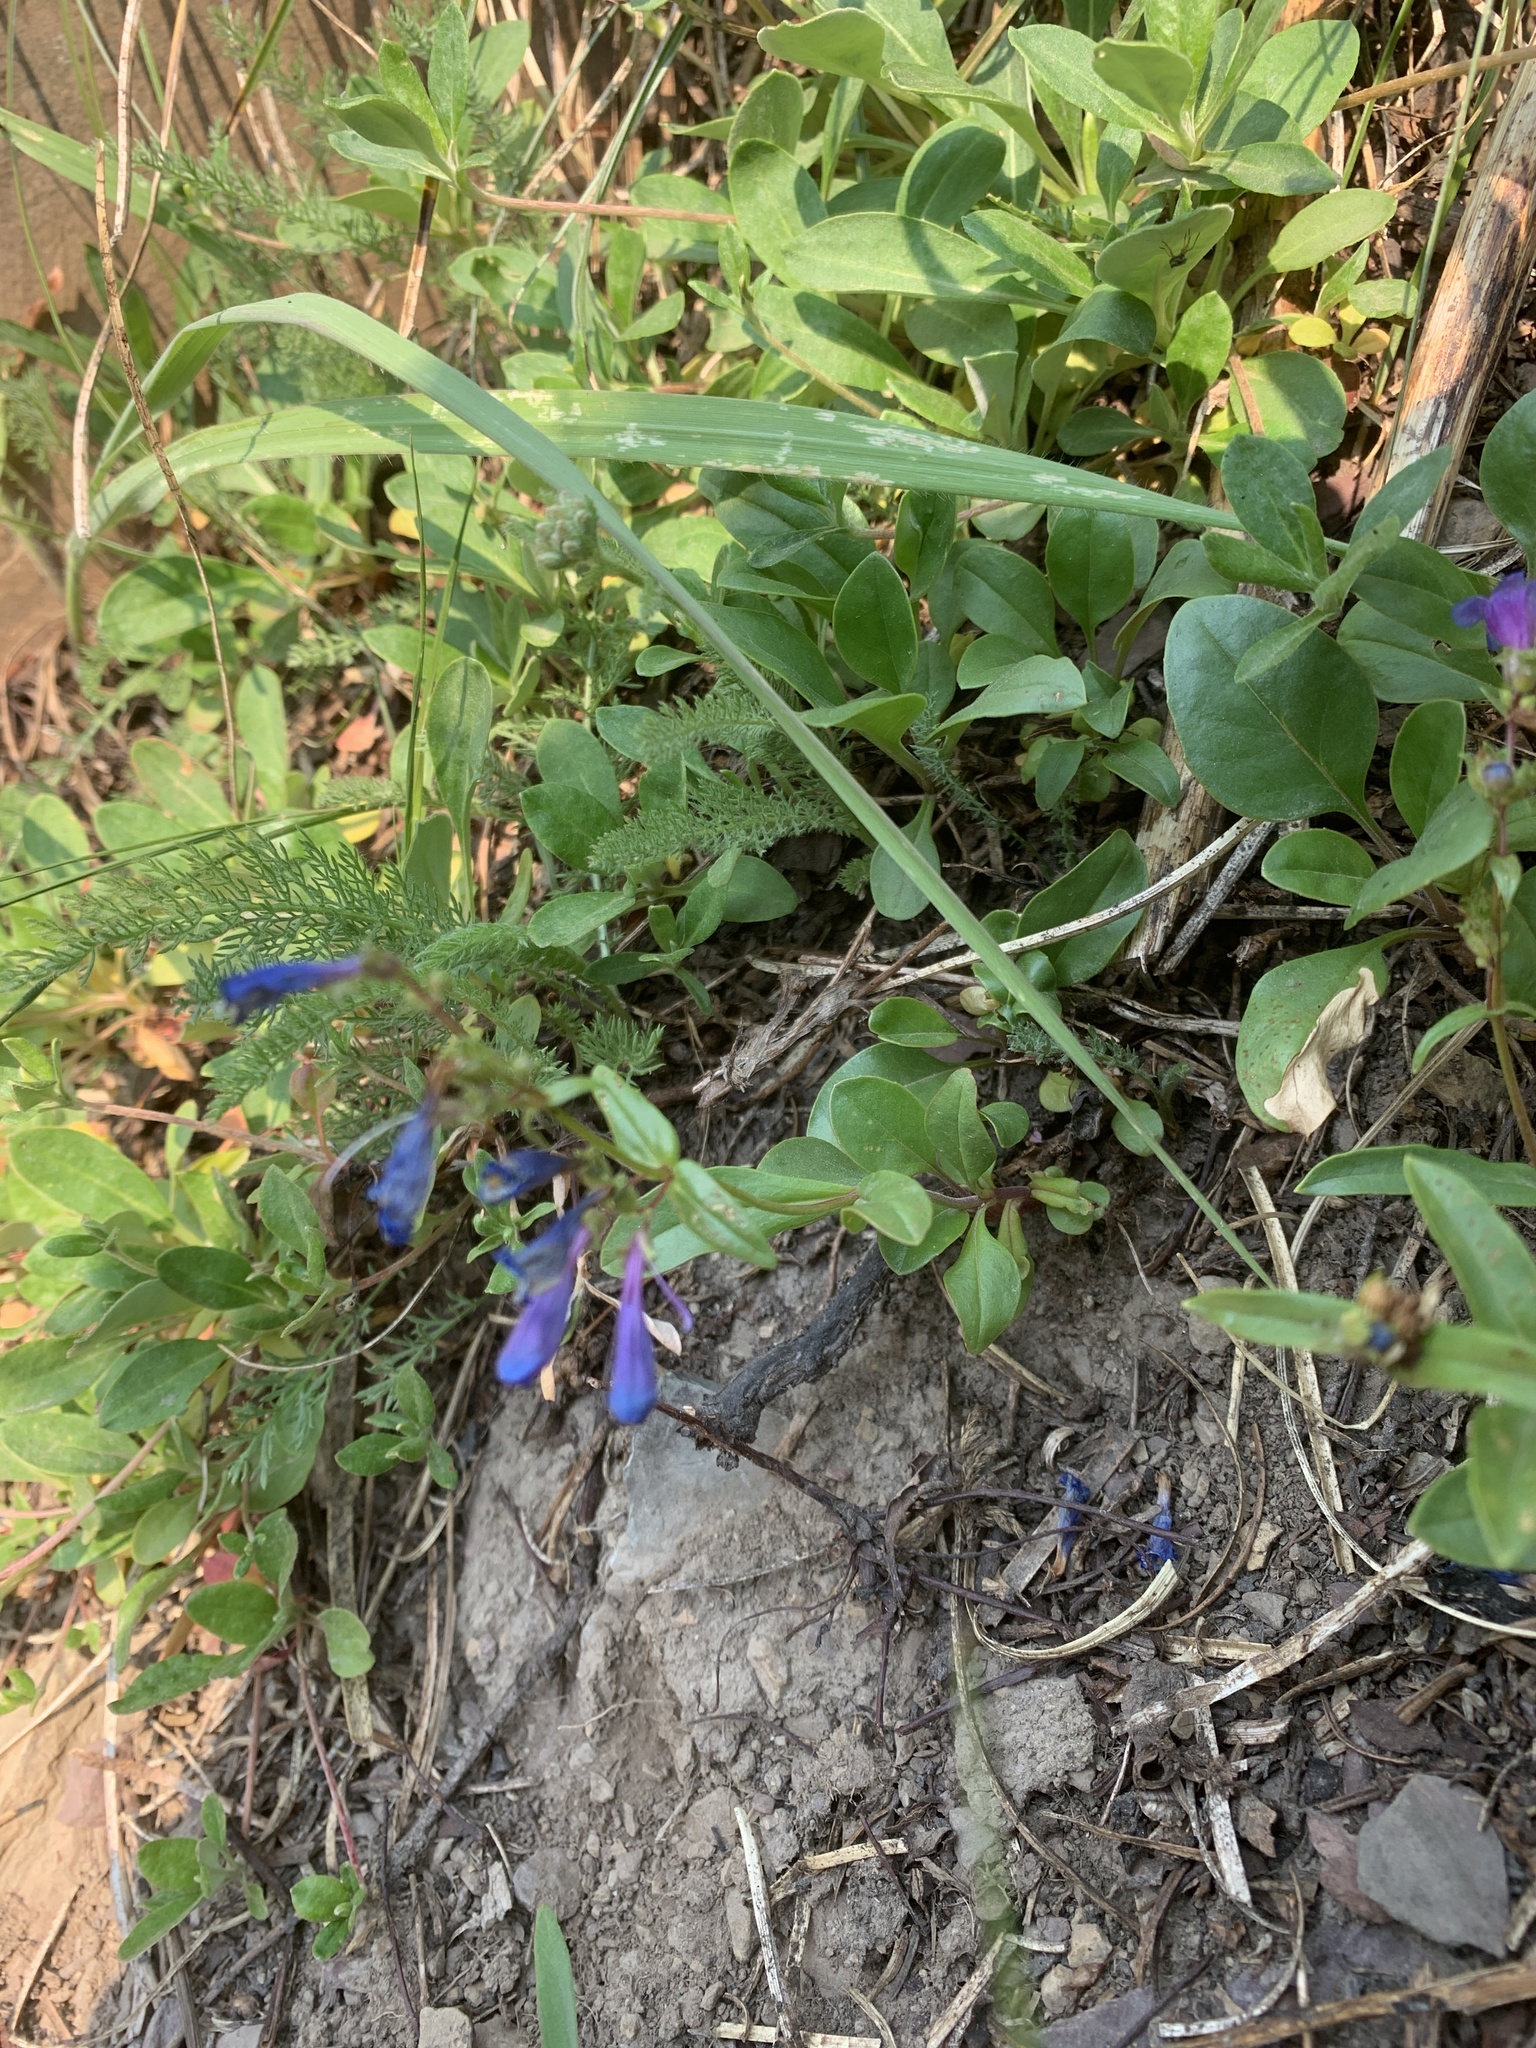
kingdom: Plantae
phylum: Tracheophyta
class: Magnoliopsida
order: Lamiales
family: Plantaginaceae
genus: Penstemon
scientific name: Penstemon albertinus
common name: Alberta beardtongue
